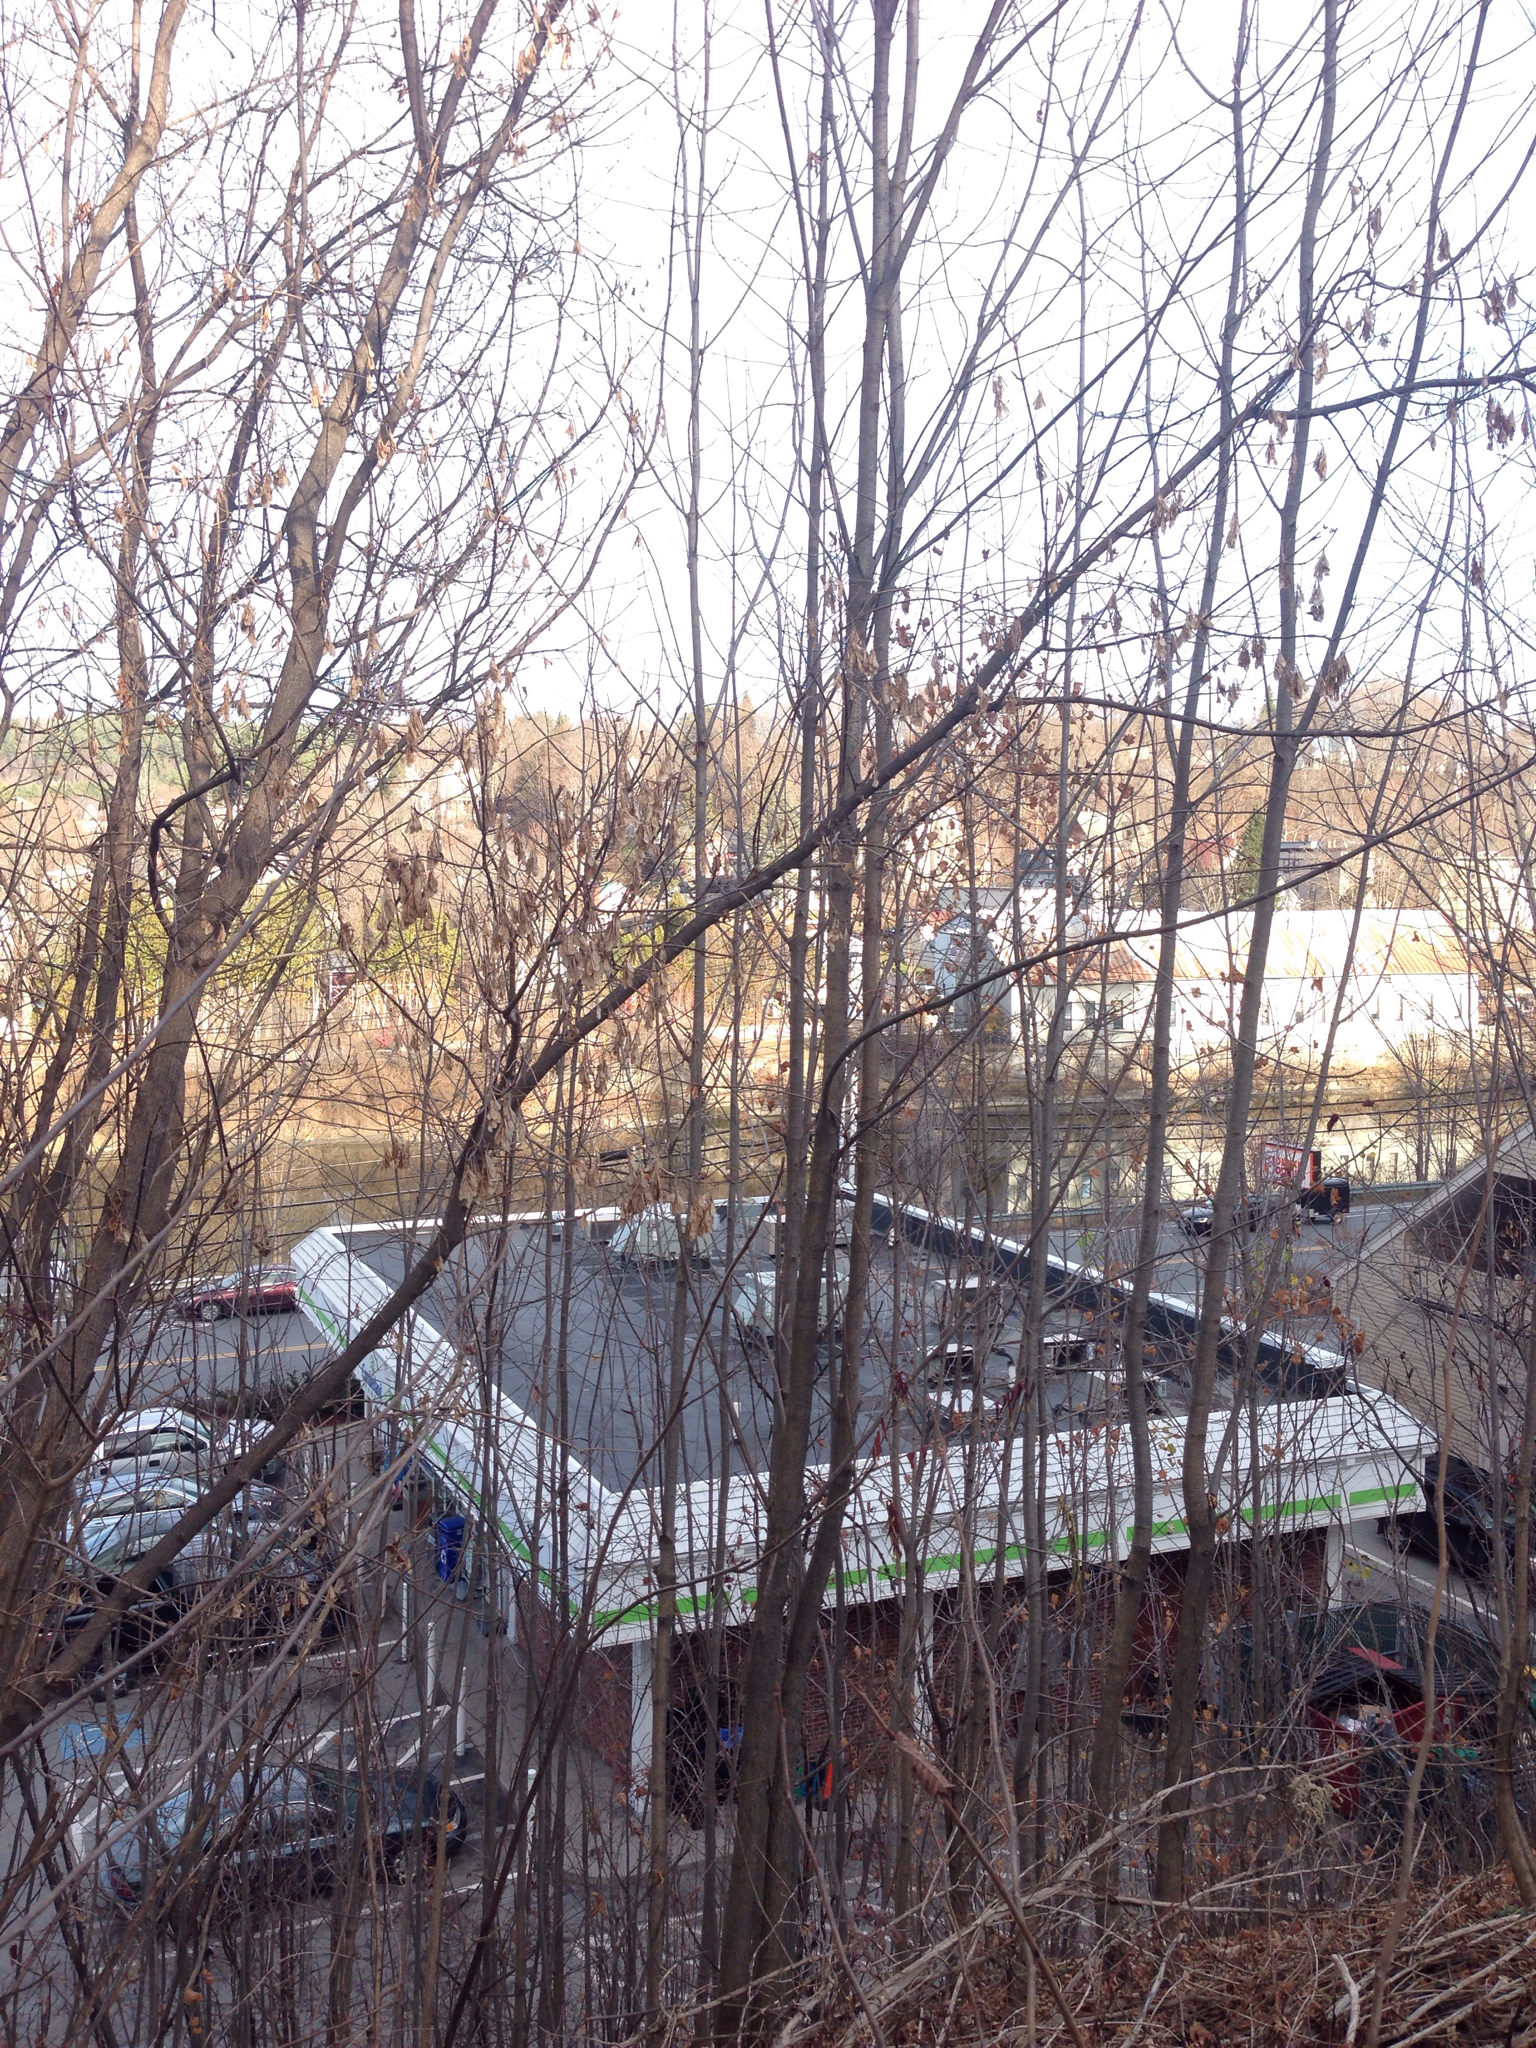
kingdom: Plantae
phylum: Tracheophyta
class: Magnoliopsida
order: Sapindales
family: Sapindaceae
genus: Acer
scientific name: Acer negundo
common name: Ashleaf maple
